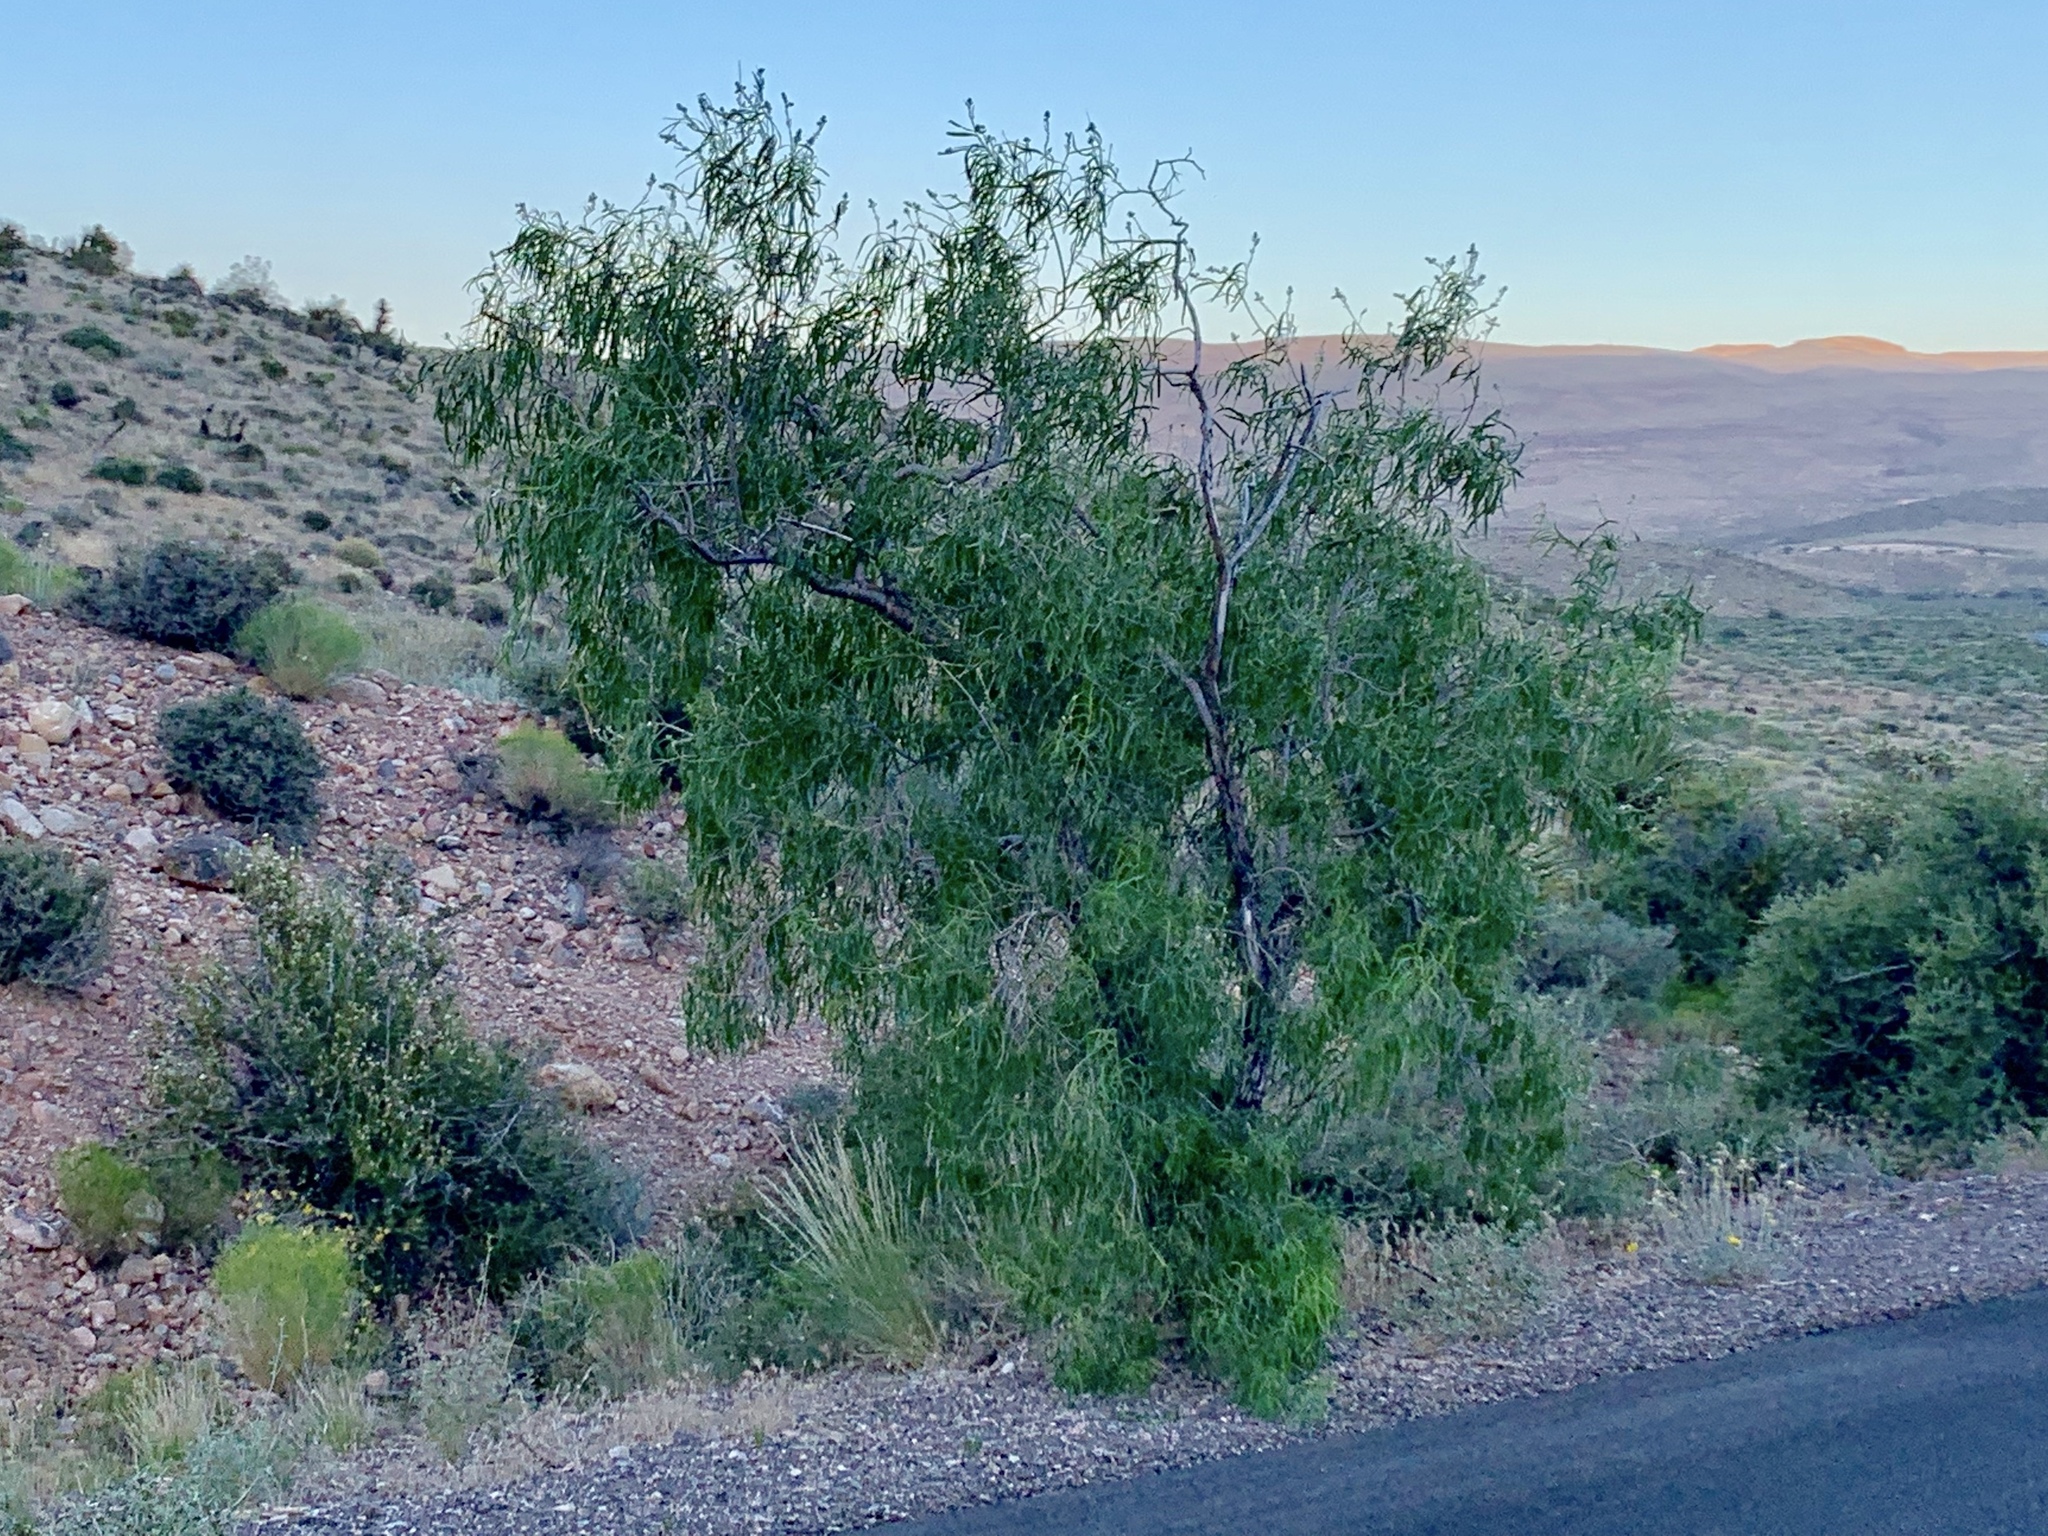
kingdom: Plantae
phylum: Tracheophyta
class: Magnoliopsida
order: Lamiales
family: Bignoniaceae
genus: Chilopsis
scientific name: Chilopsis linearis
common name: Desert-willow
